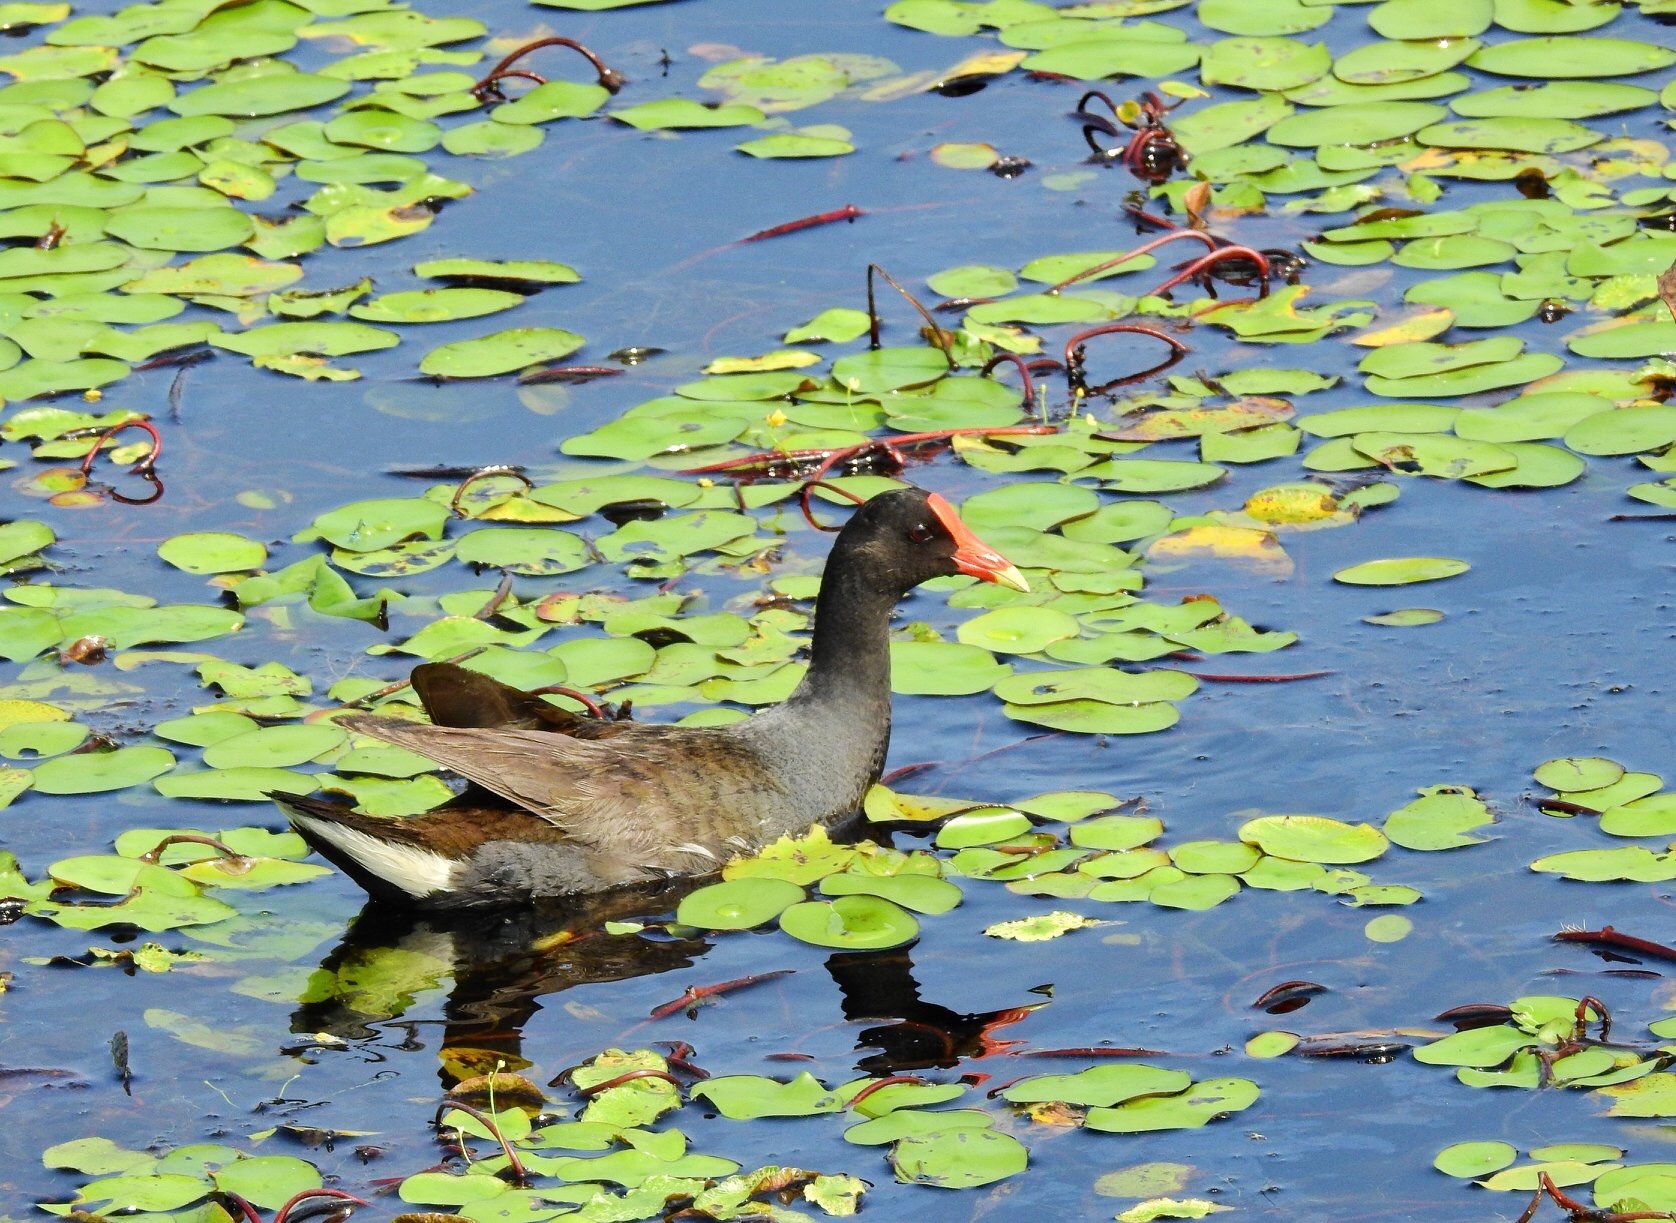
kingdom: Animalia
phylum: Chordata
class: Aves
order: Gruiformes
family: Rallidae
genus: Gallinula
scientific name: Gallinula chloropus
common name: Common moorhen
